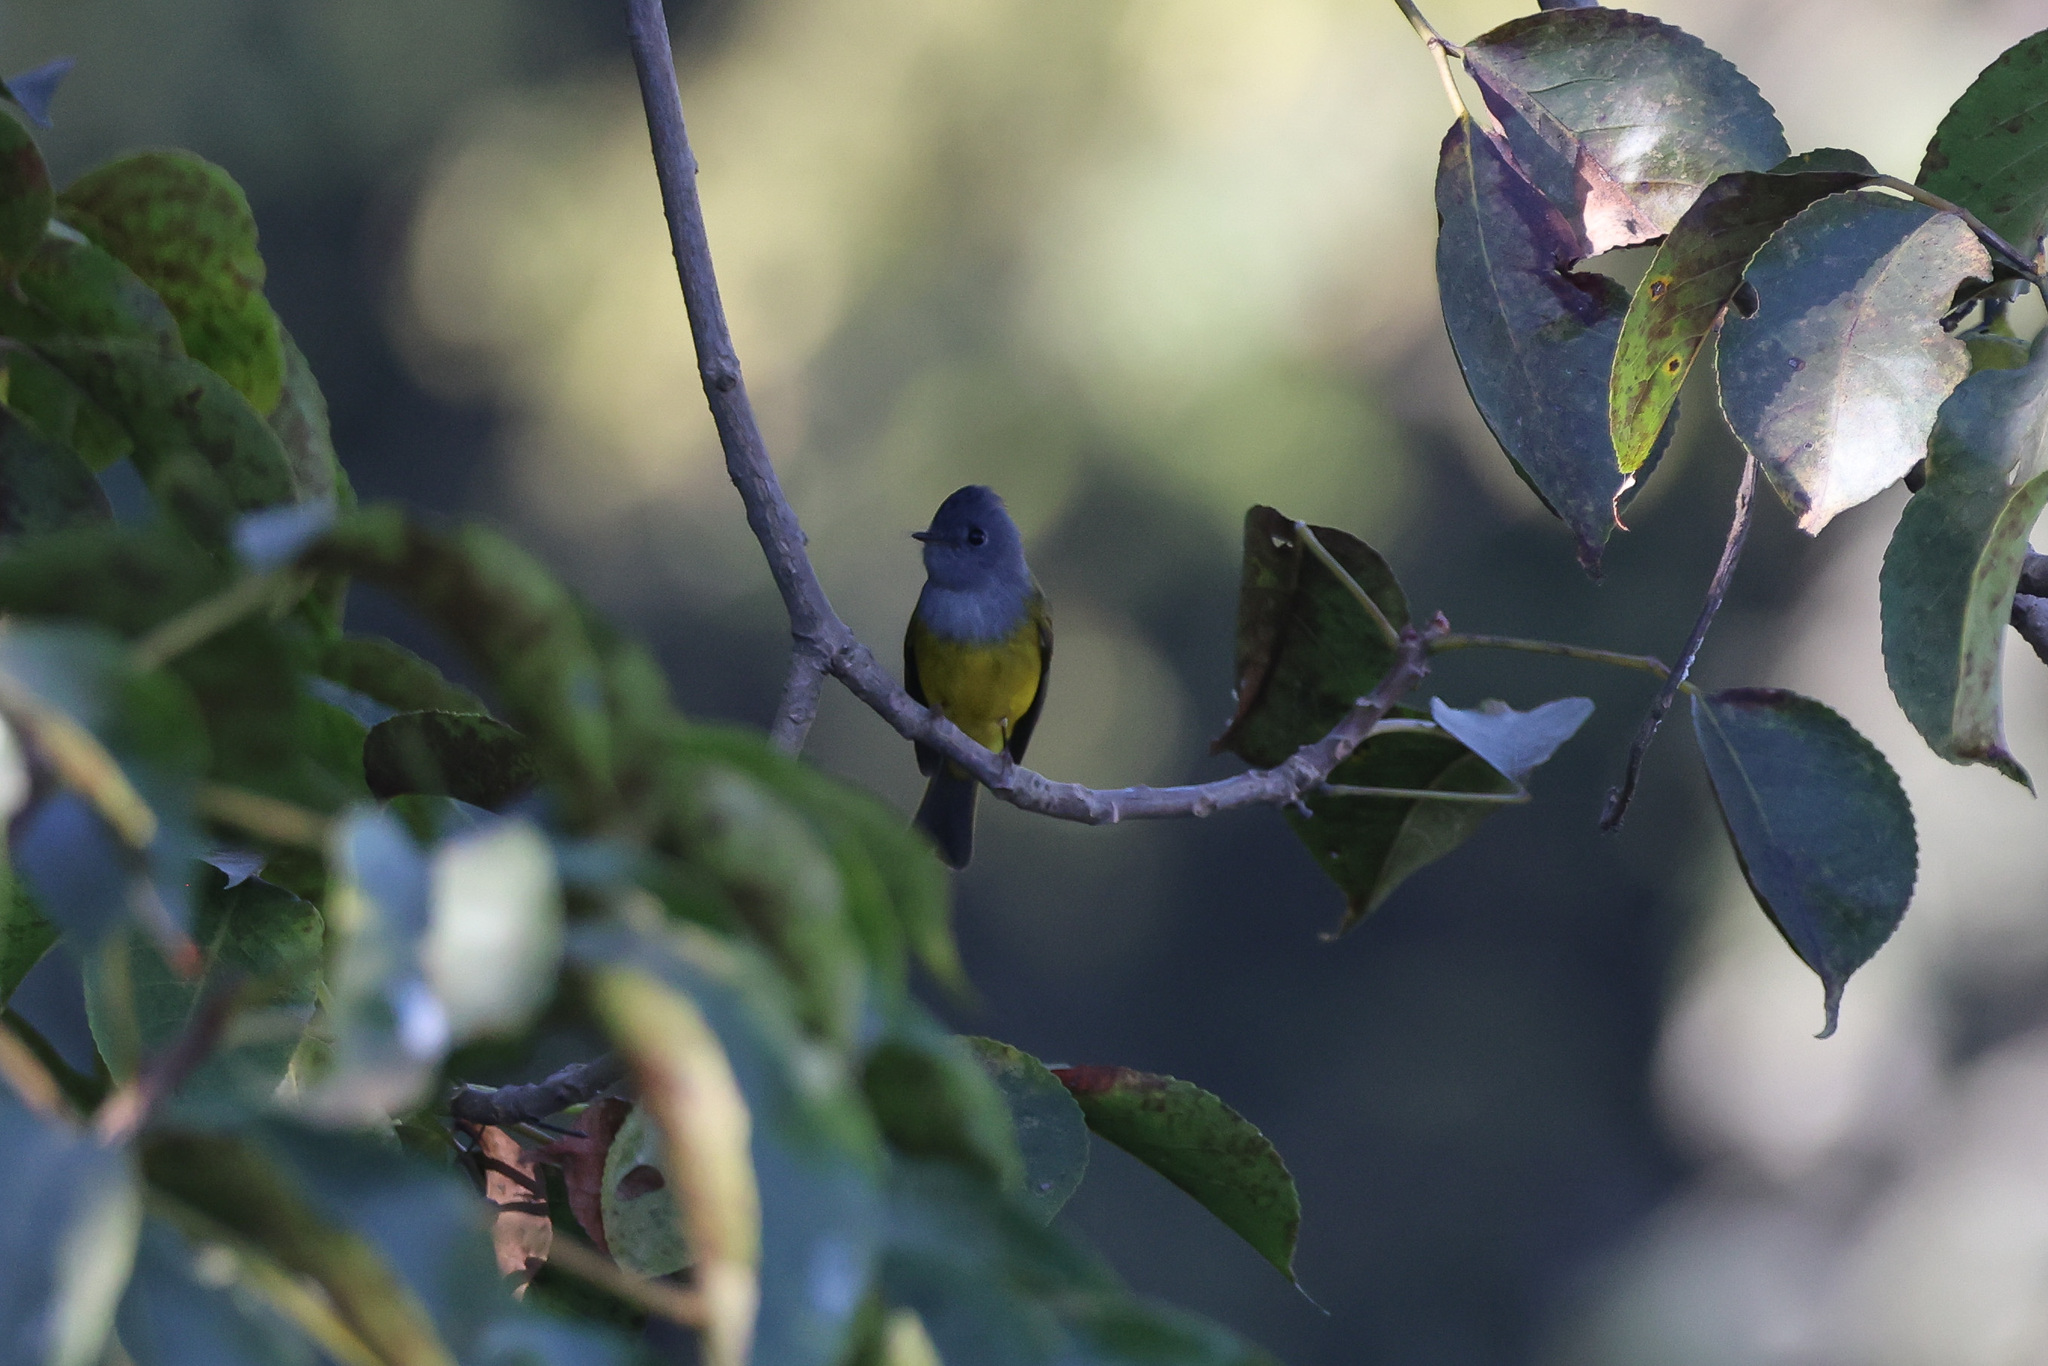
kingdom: Animalia
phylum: Chordata
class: Aves
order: Passeriformes
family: Stenostiridae
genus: Culicicapa
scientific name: Culicicapa ceylonensis
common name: Grey-headed canary-flycatcher
